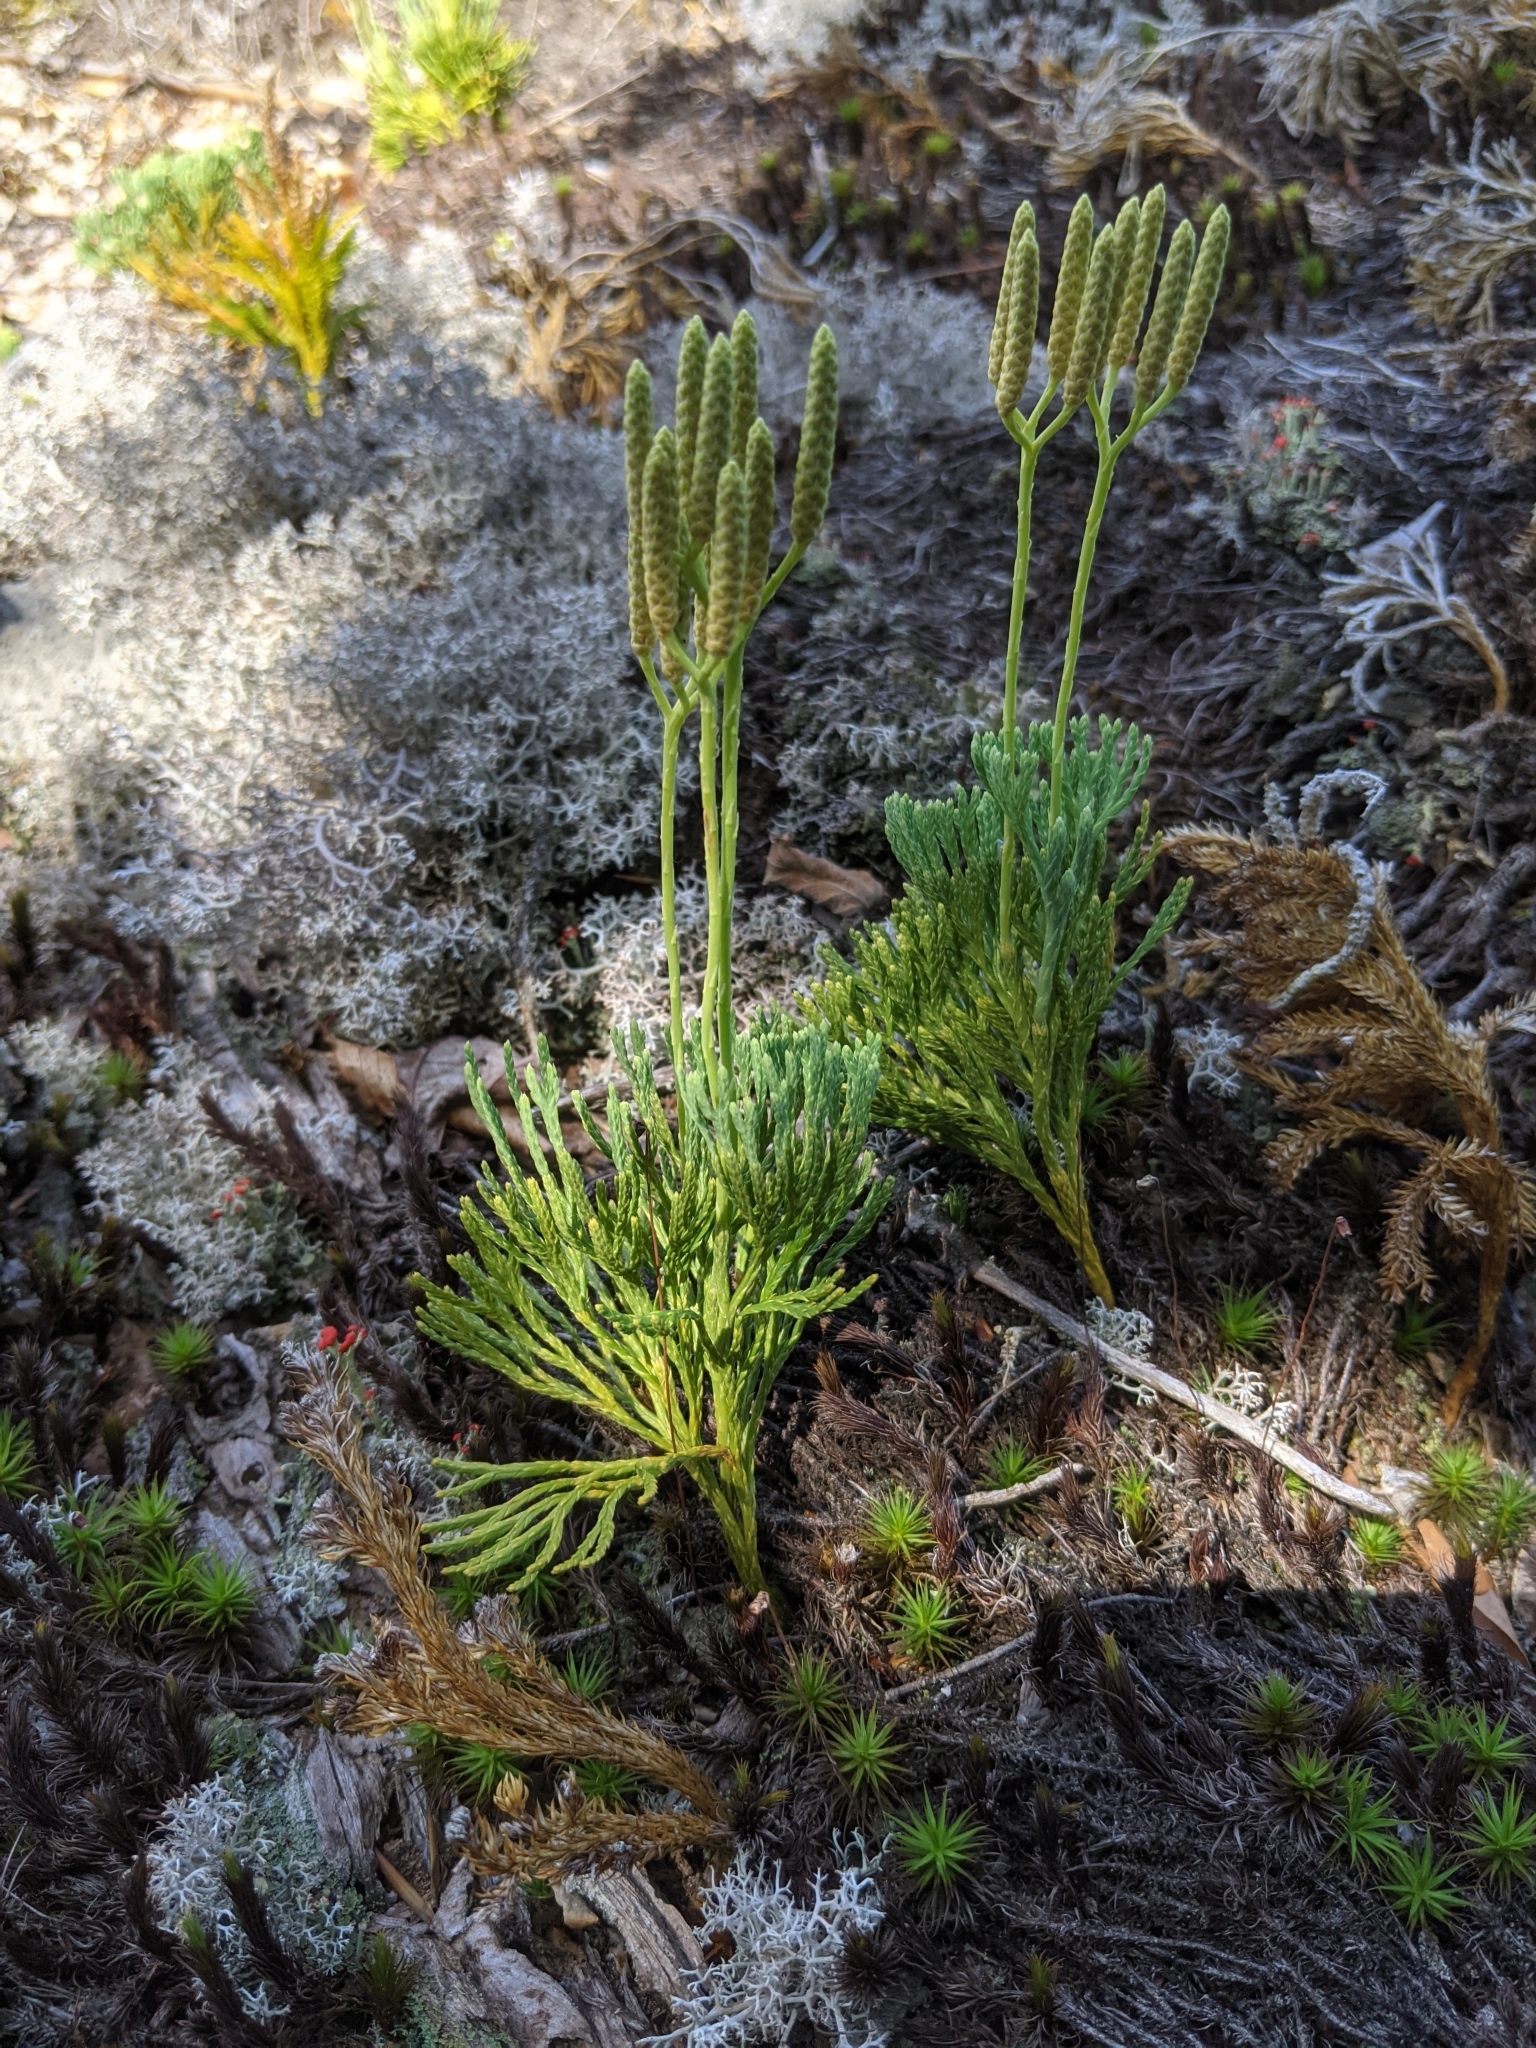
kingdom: Plantae
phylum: Tracheophyta
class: Lycopodiopsida
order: Lycopodiales
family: Lycopodiaceae
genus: Diphasiastrum
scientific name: Diphasiastrum tristachyum
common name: Blue ground-cedar
